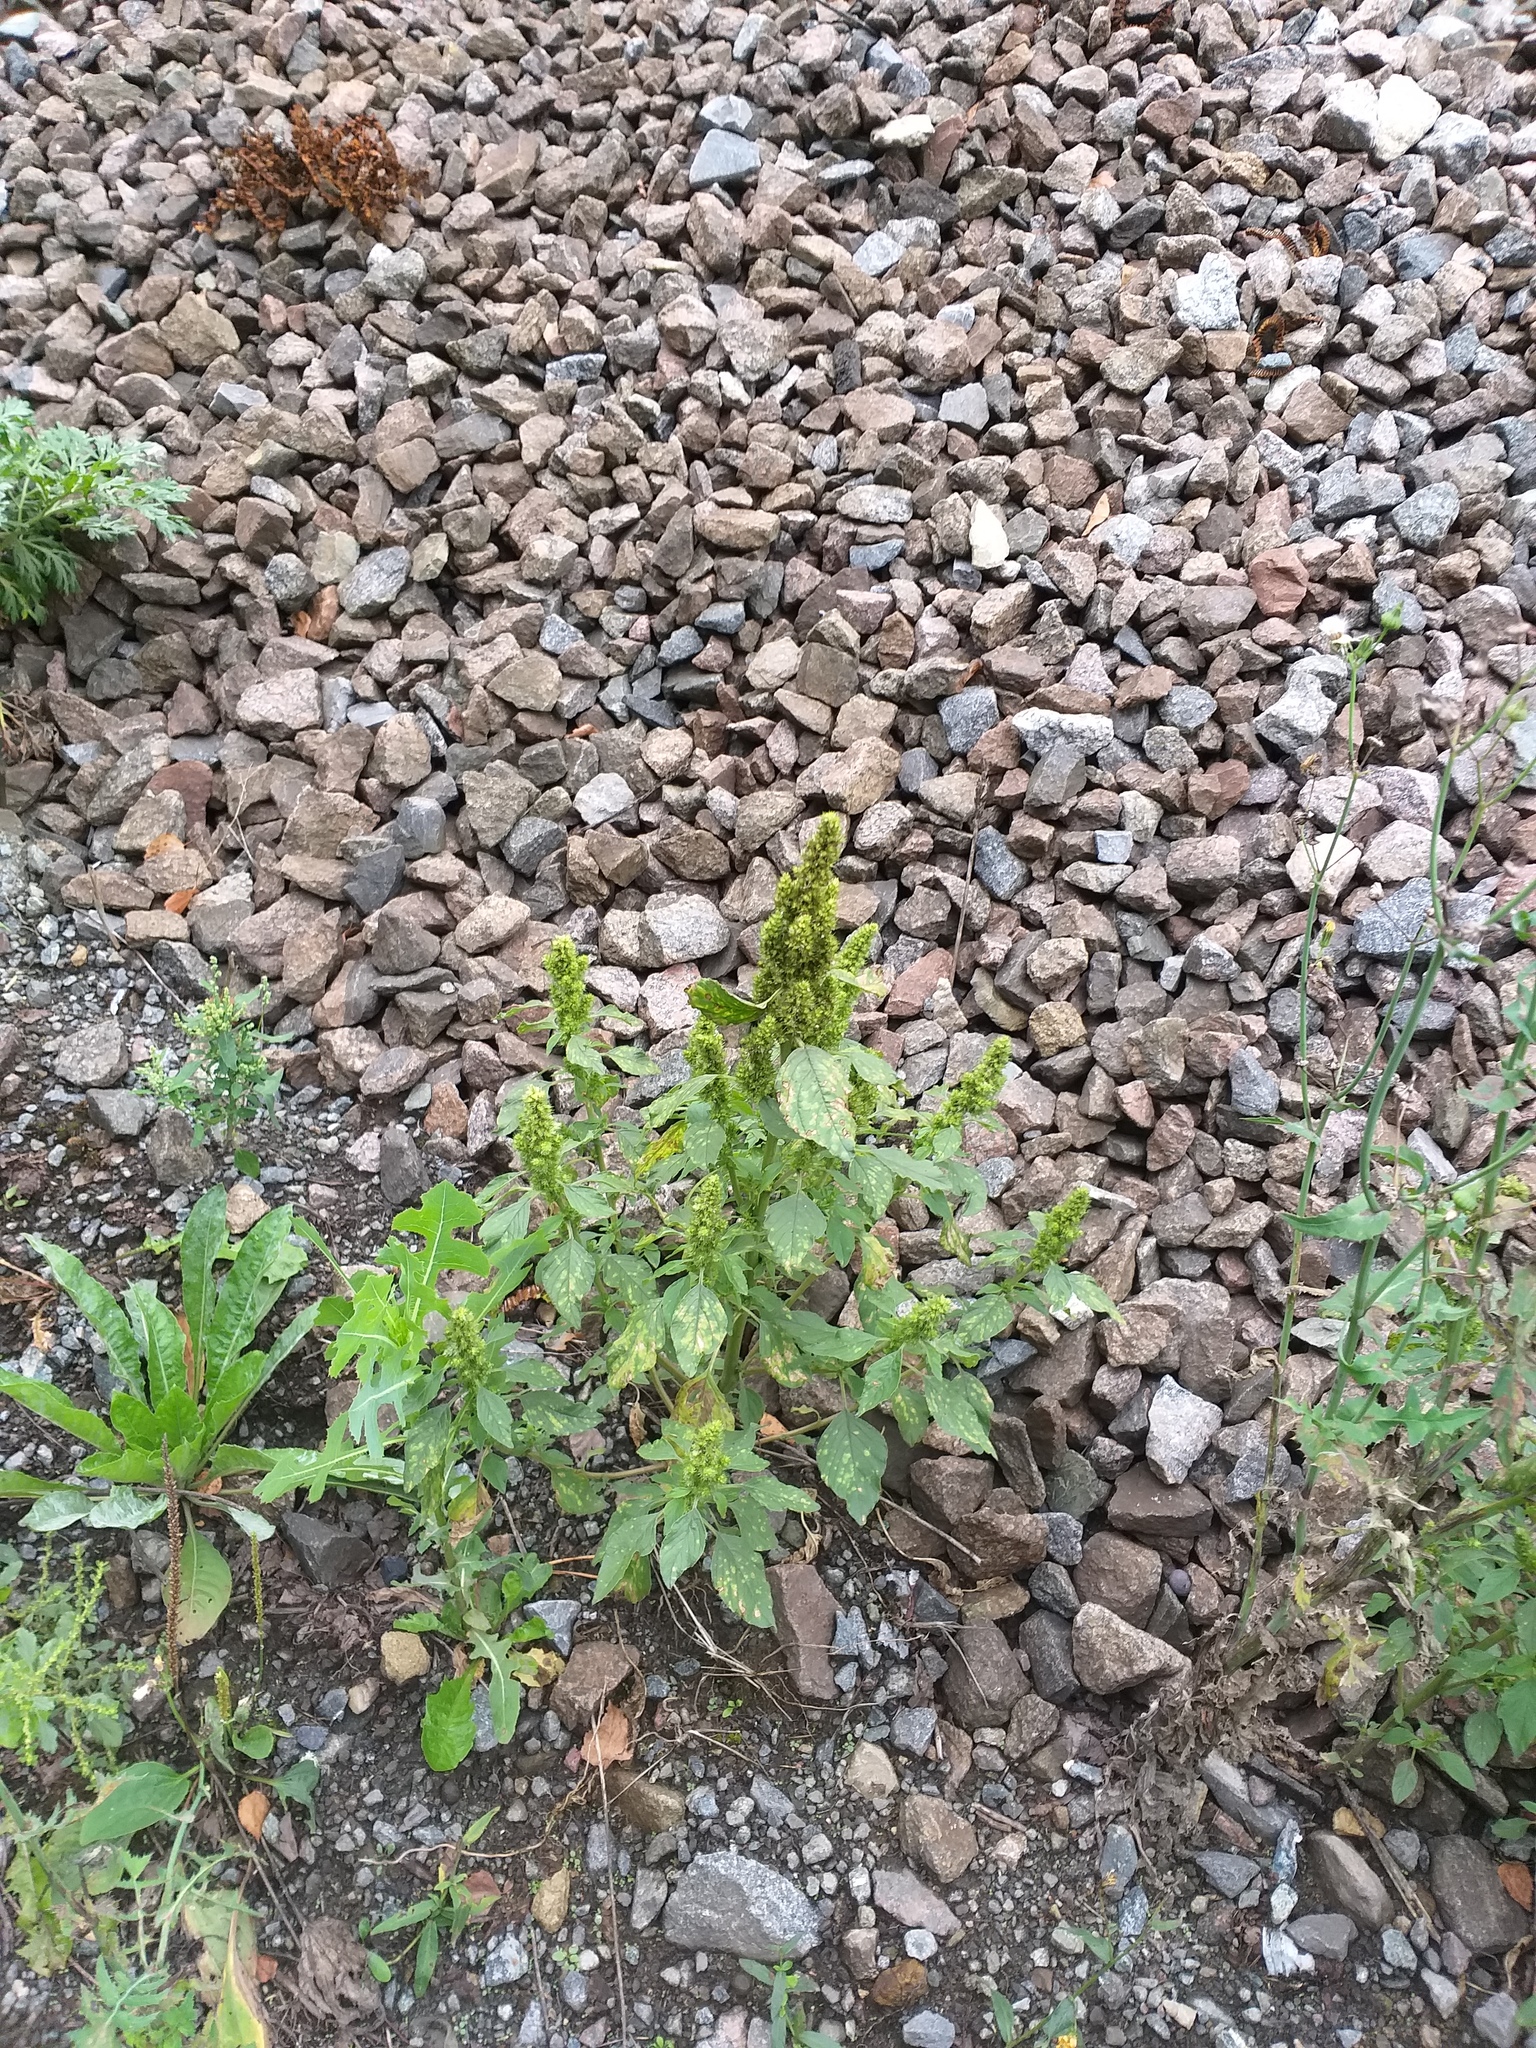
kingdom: Plantae
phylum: Tracheophyta
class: Magnoliopsida
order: Caryophyllales
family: Amaranthaceae
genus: Amaranthus
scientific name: Amaranthus retroflexus
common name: Redroot amaranth
